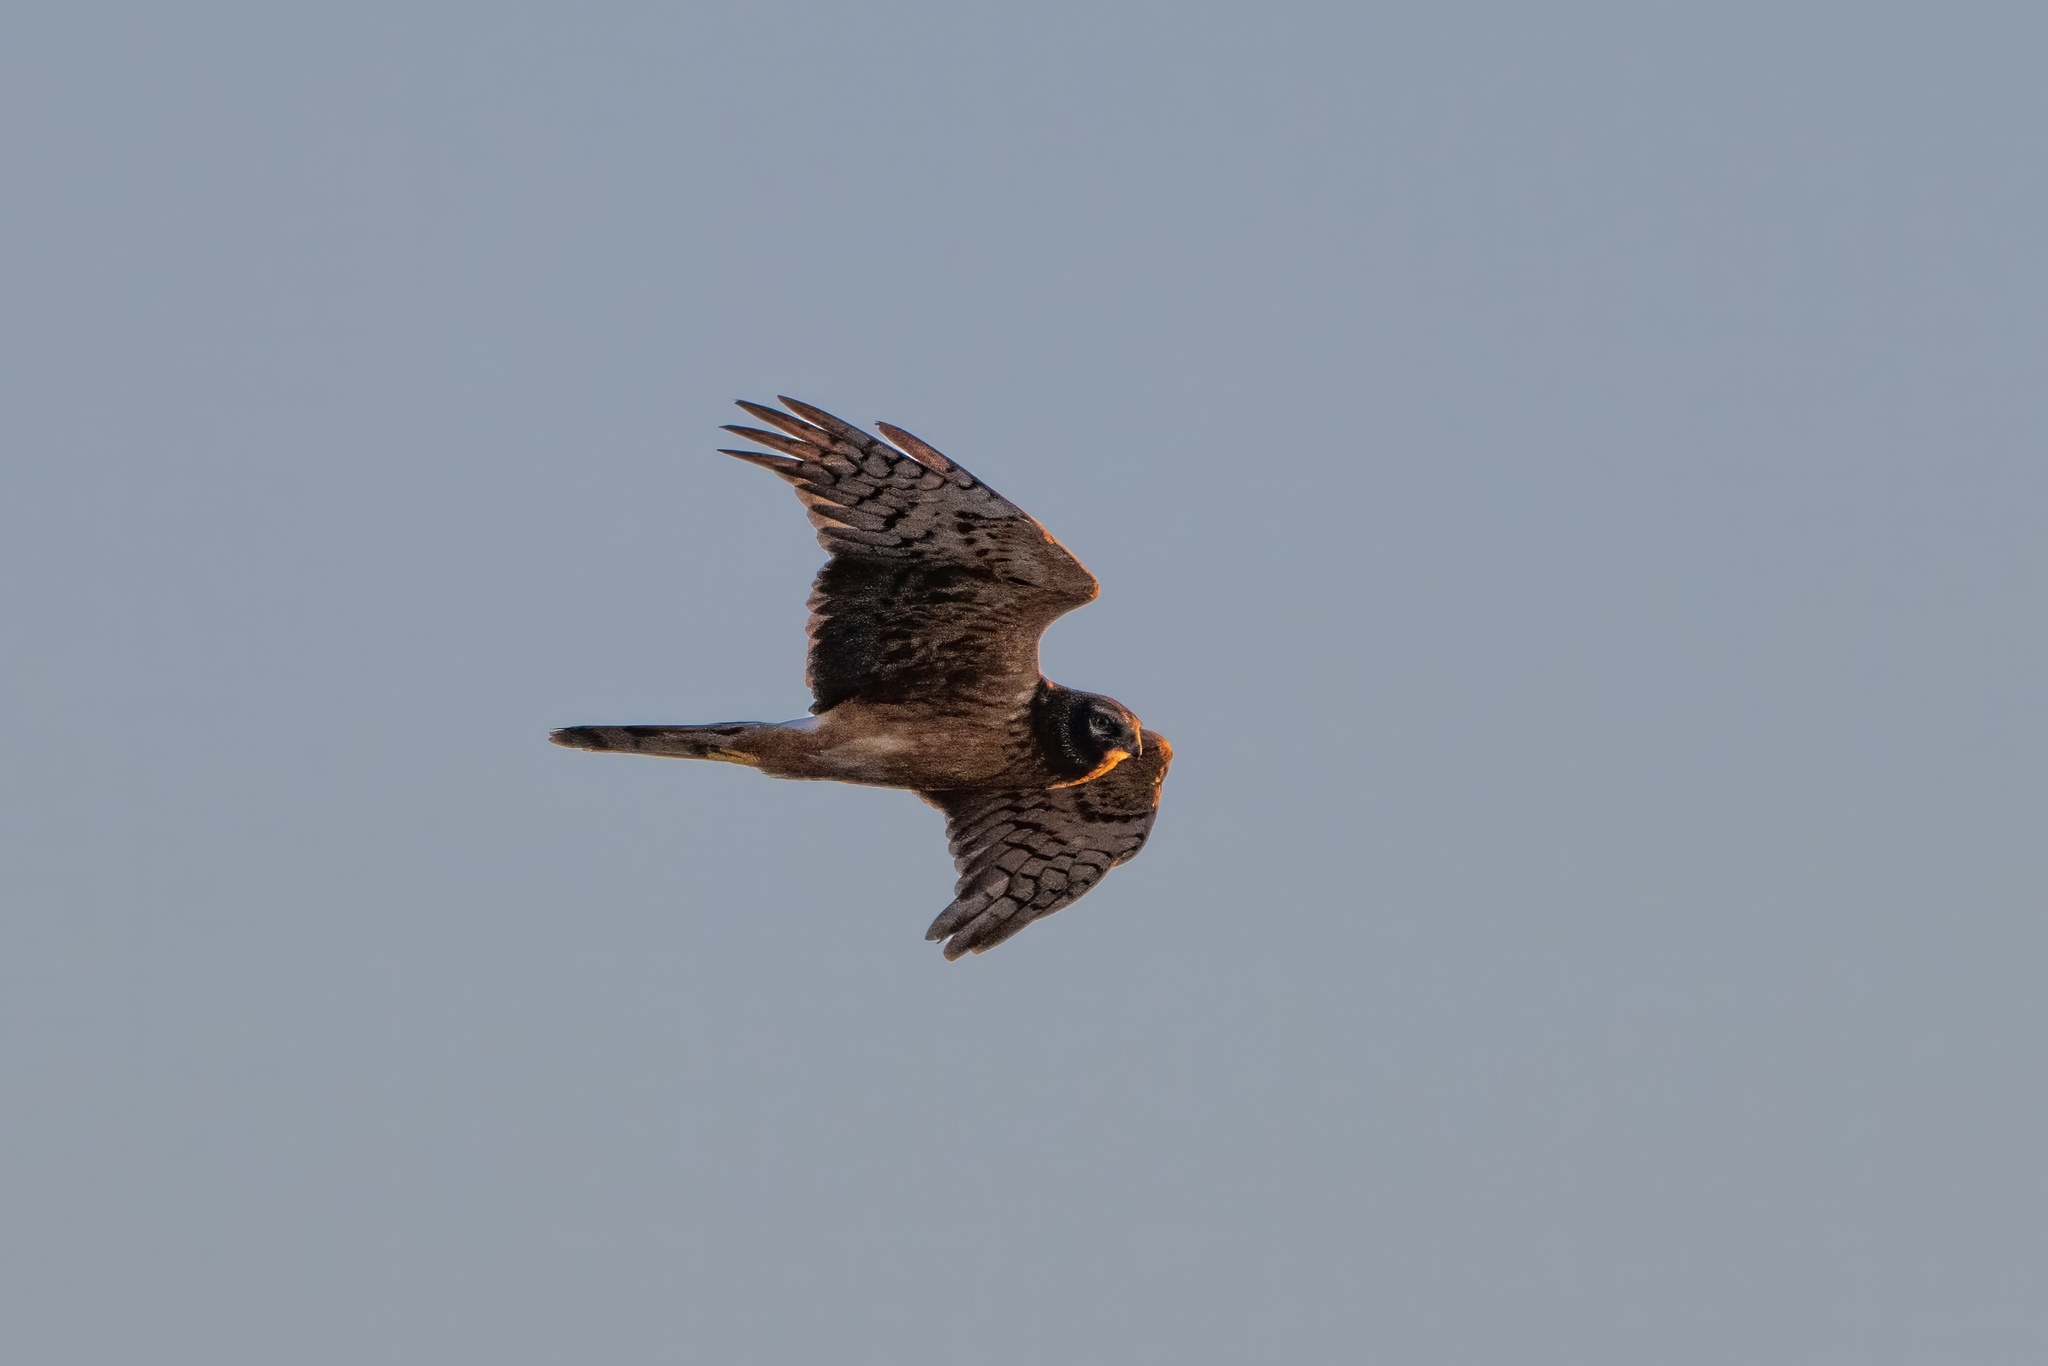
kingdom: Animalia
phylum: Chordata
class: Aves
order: Accipitriformes
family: Accipitridae
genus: Circus
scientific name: Circus cyaneus
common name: Hen harrier
